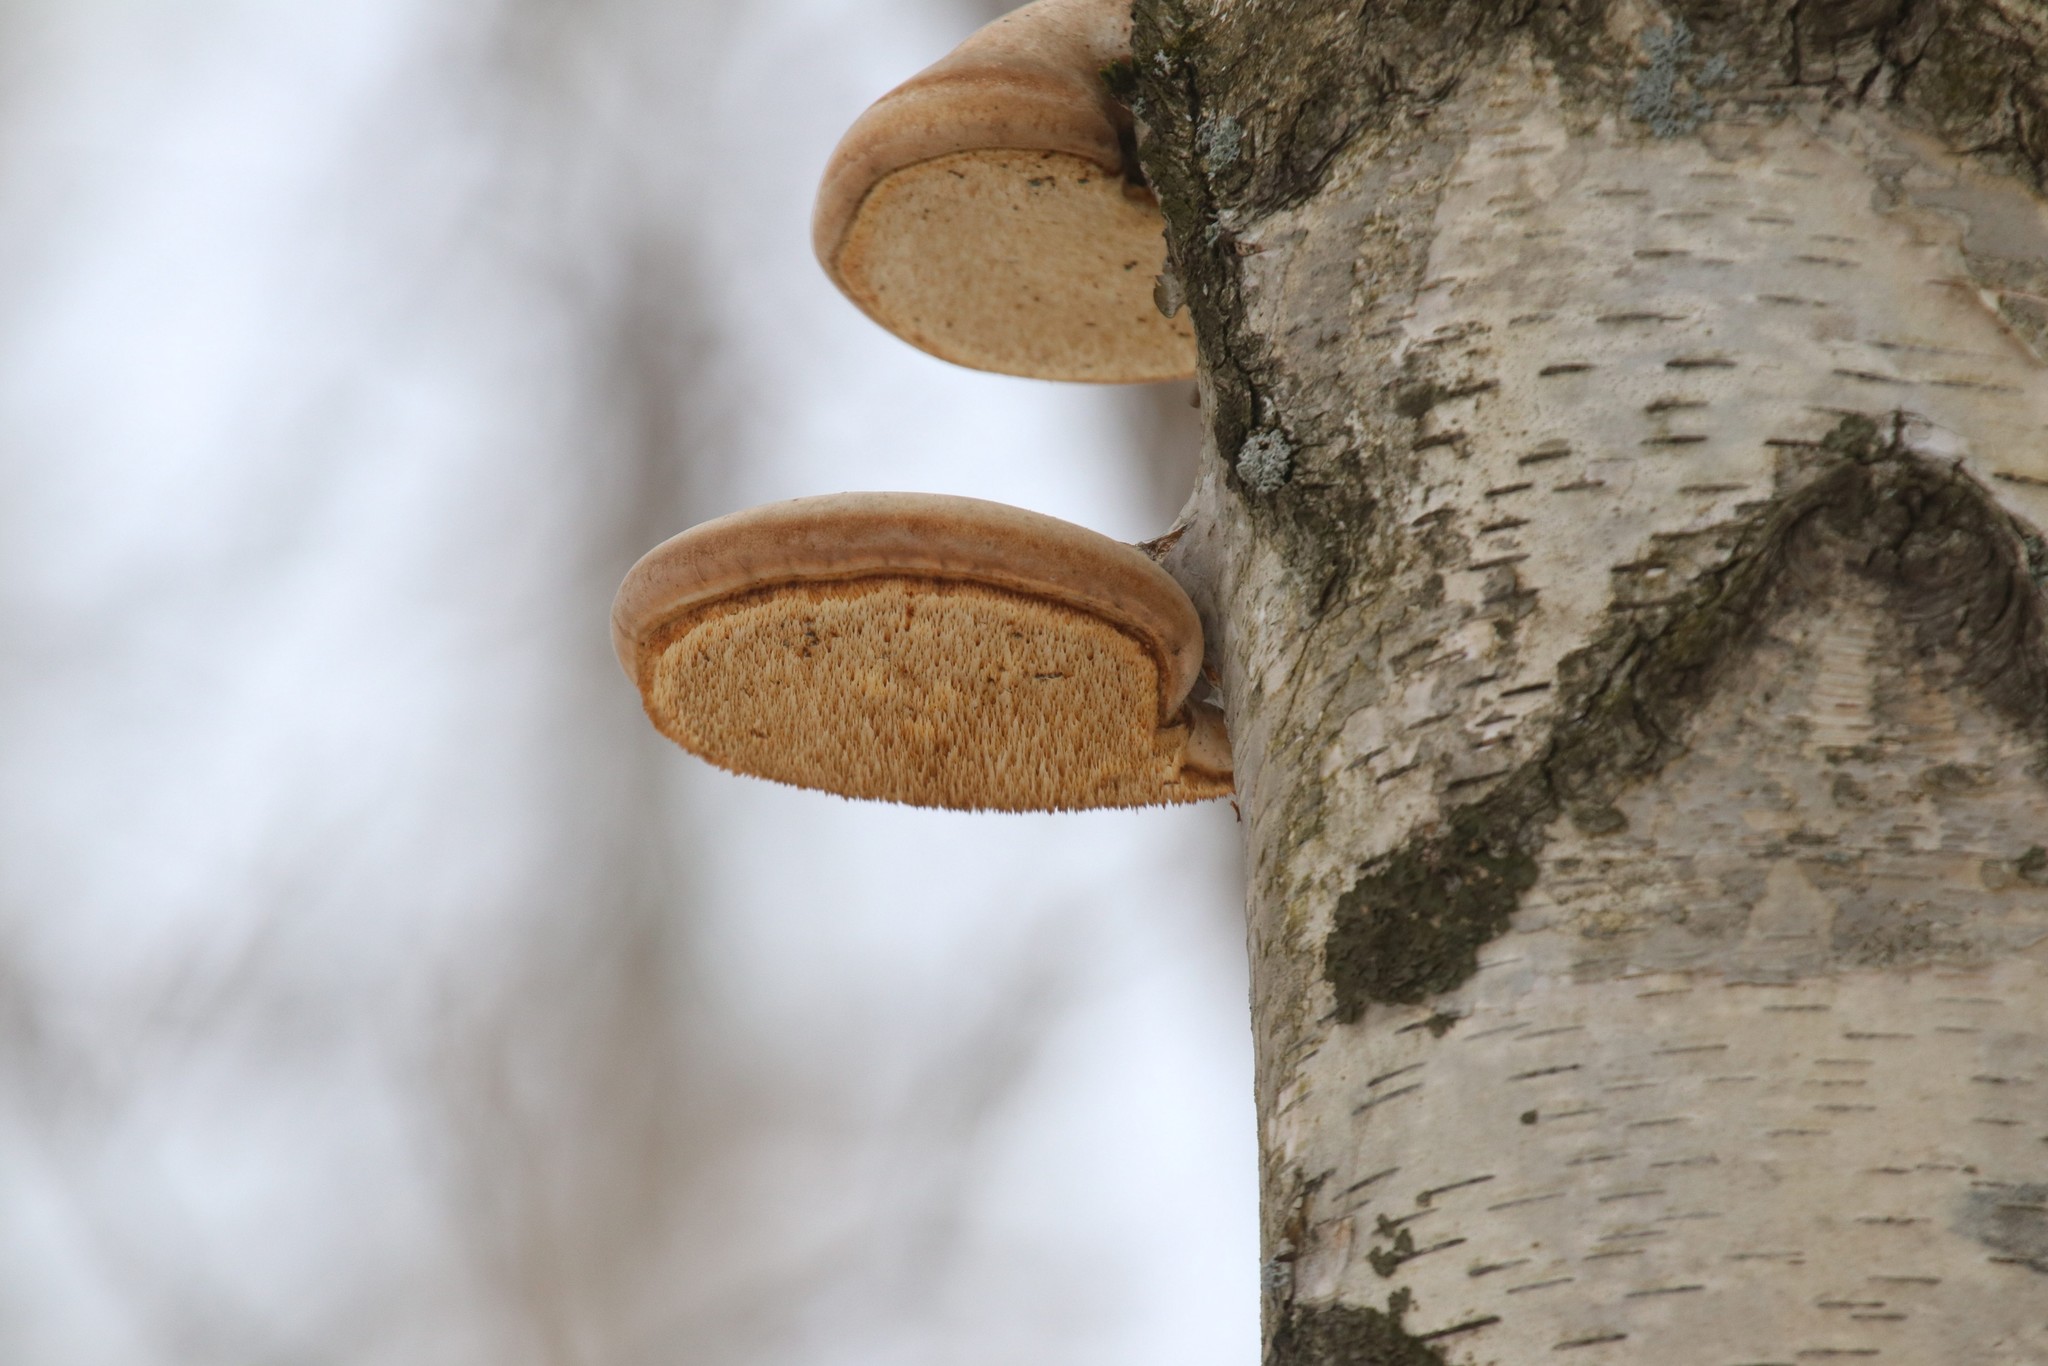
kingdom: Fungi
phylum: Basidiomycota
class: Agaricomycetes
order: Polyporales
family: Fomitopsidaceae
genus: Fomitopsis
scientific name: Fomitopsis betulina
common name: Birch polypore
